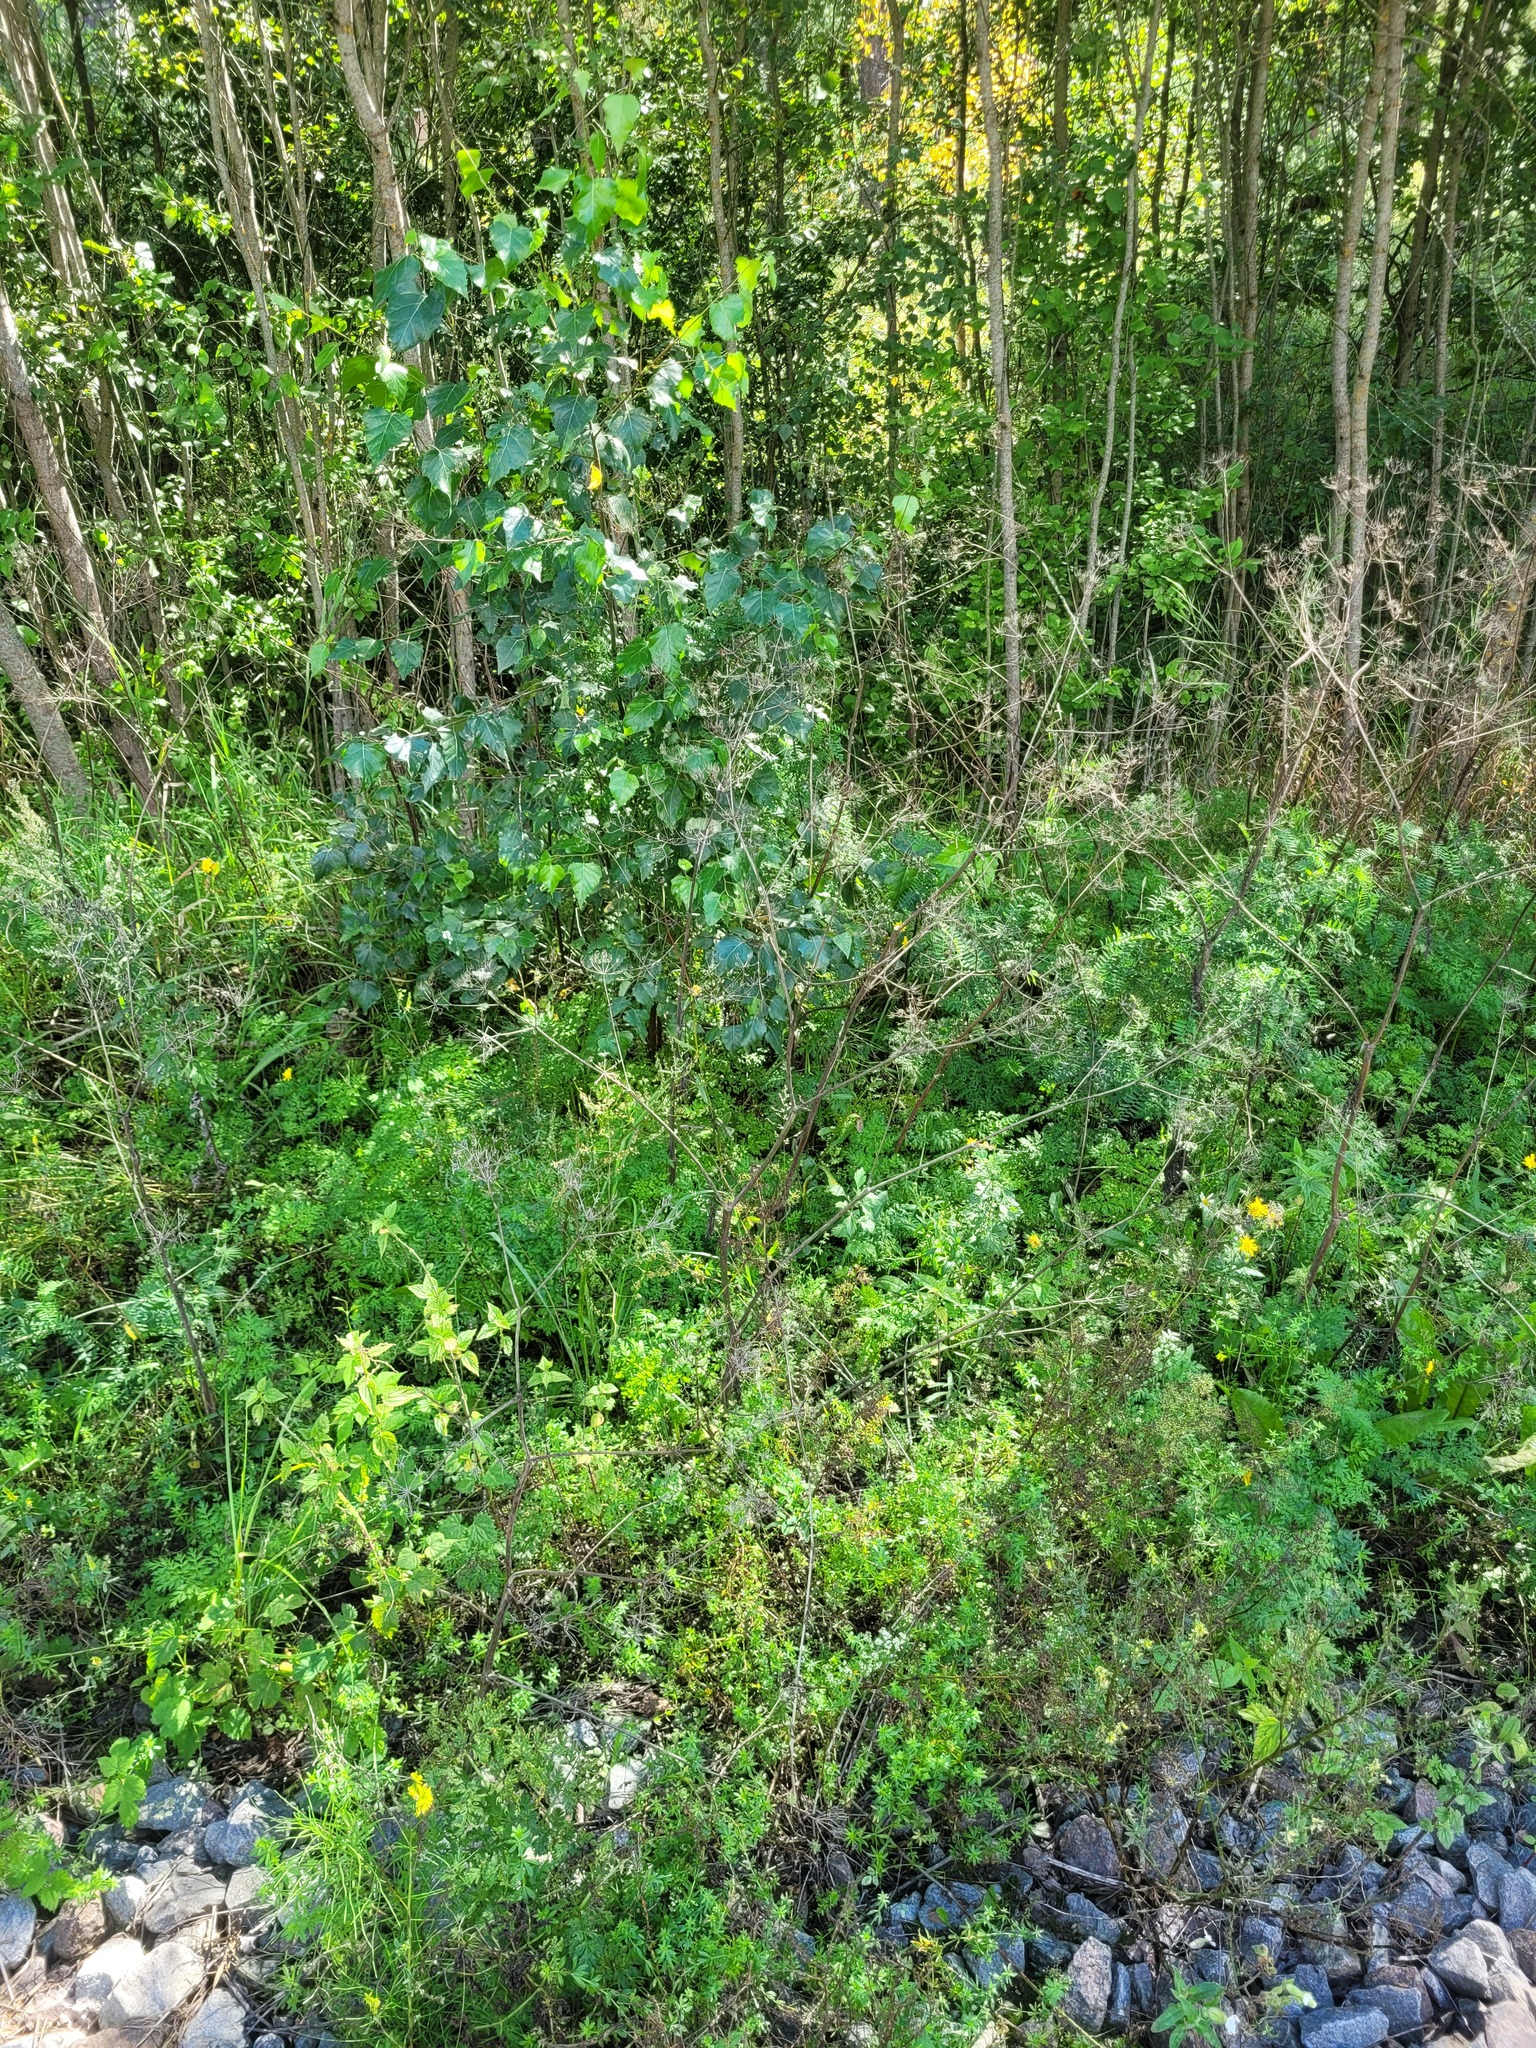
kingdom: Plantae
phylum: Tracheophyta
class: Magnoliopsida
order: Apiales
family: Apiaceae
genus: Anthriscus
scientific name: Anthriscus sylvestris
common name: Cow parsley
